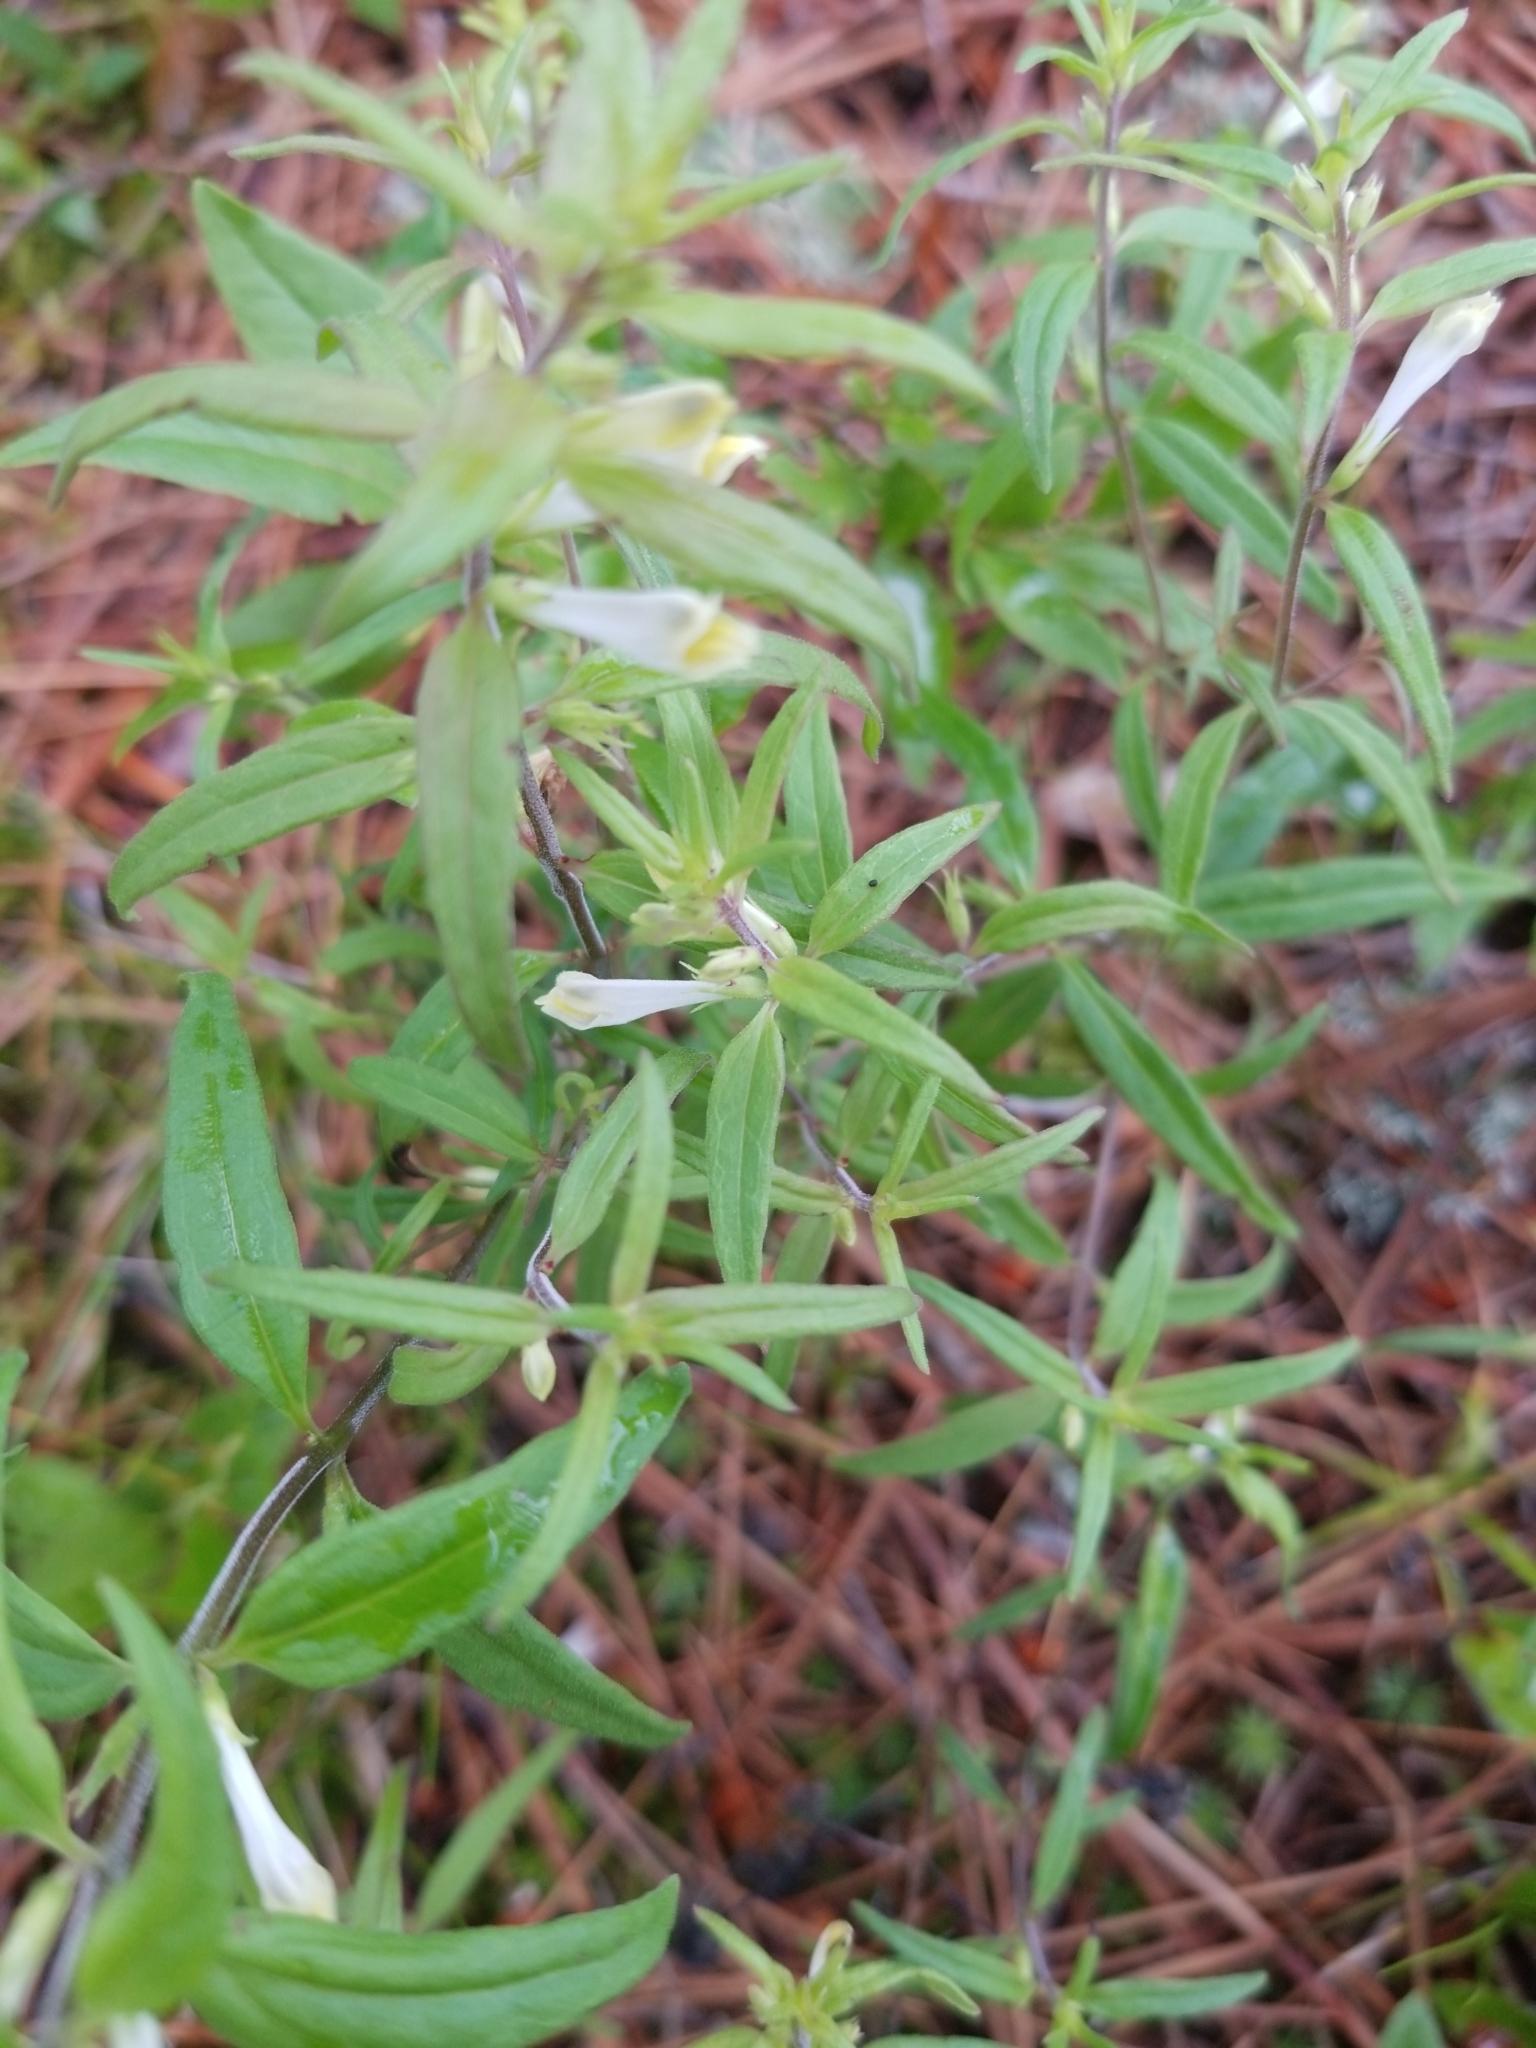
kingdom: Plantae
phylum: Tracheophyta
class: Magnoliopsida
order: Lamiales
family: Orobanchaceae
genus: Melampyrum
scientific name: Melampyrum lineare
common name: American cow-wheat
